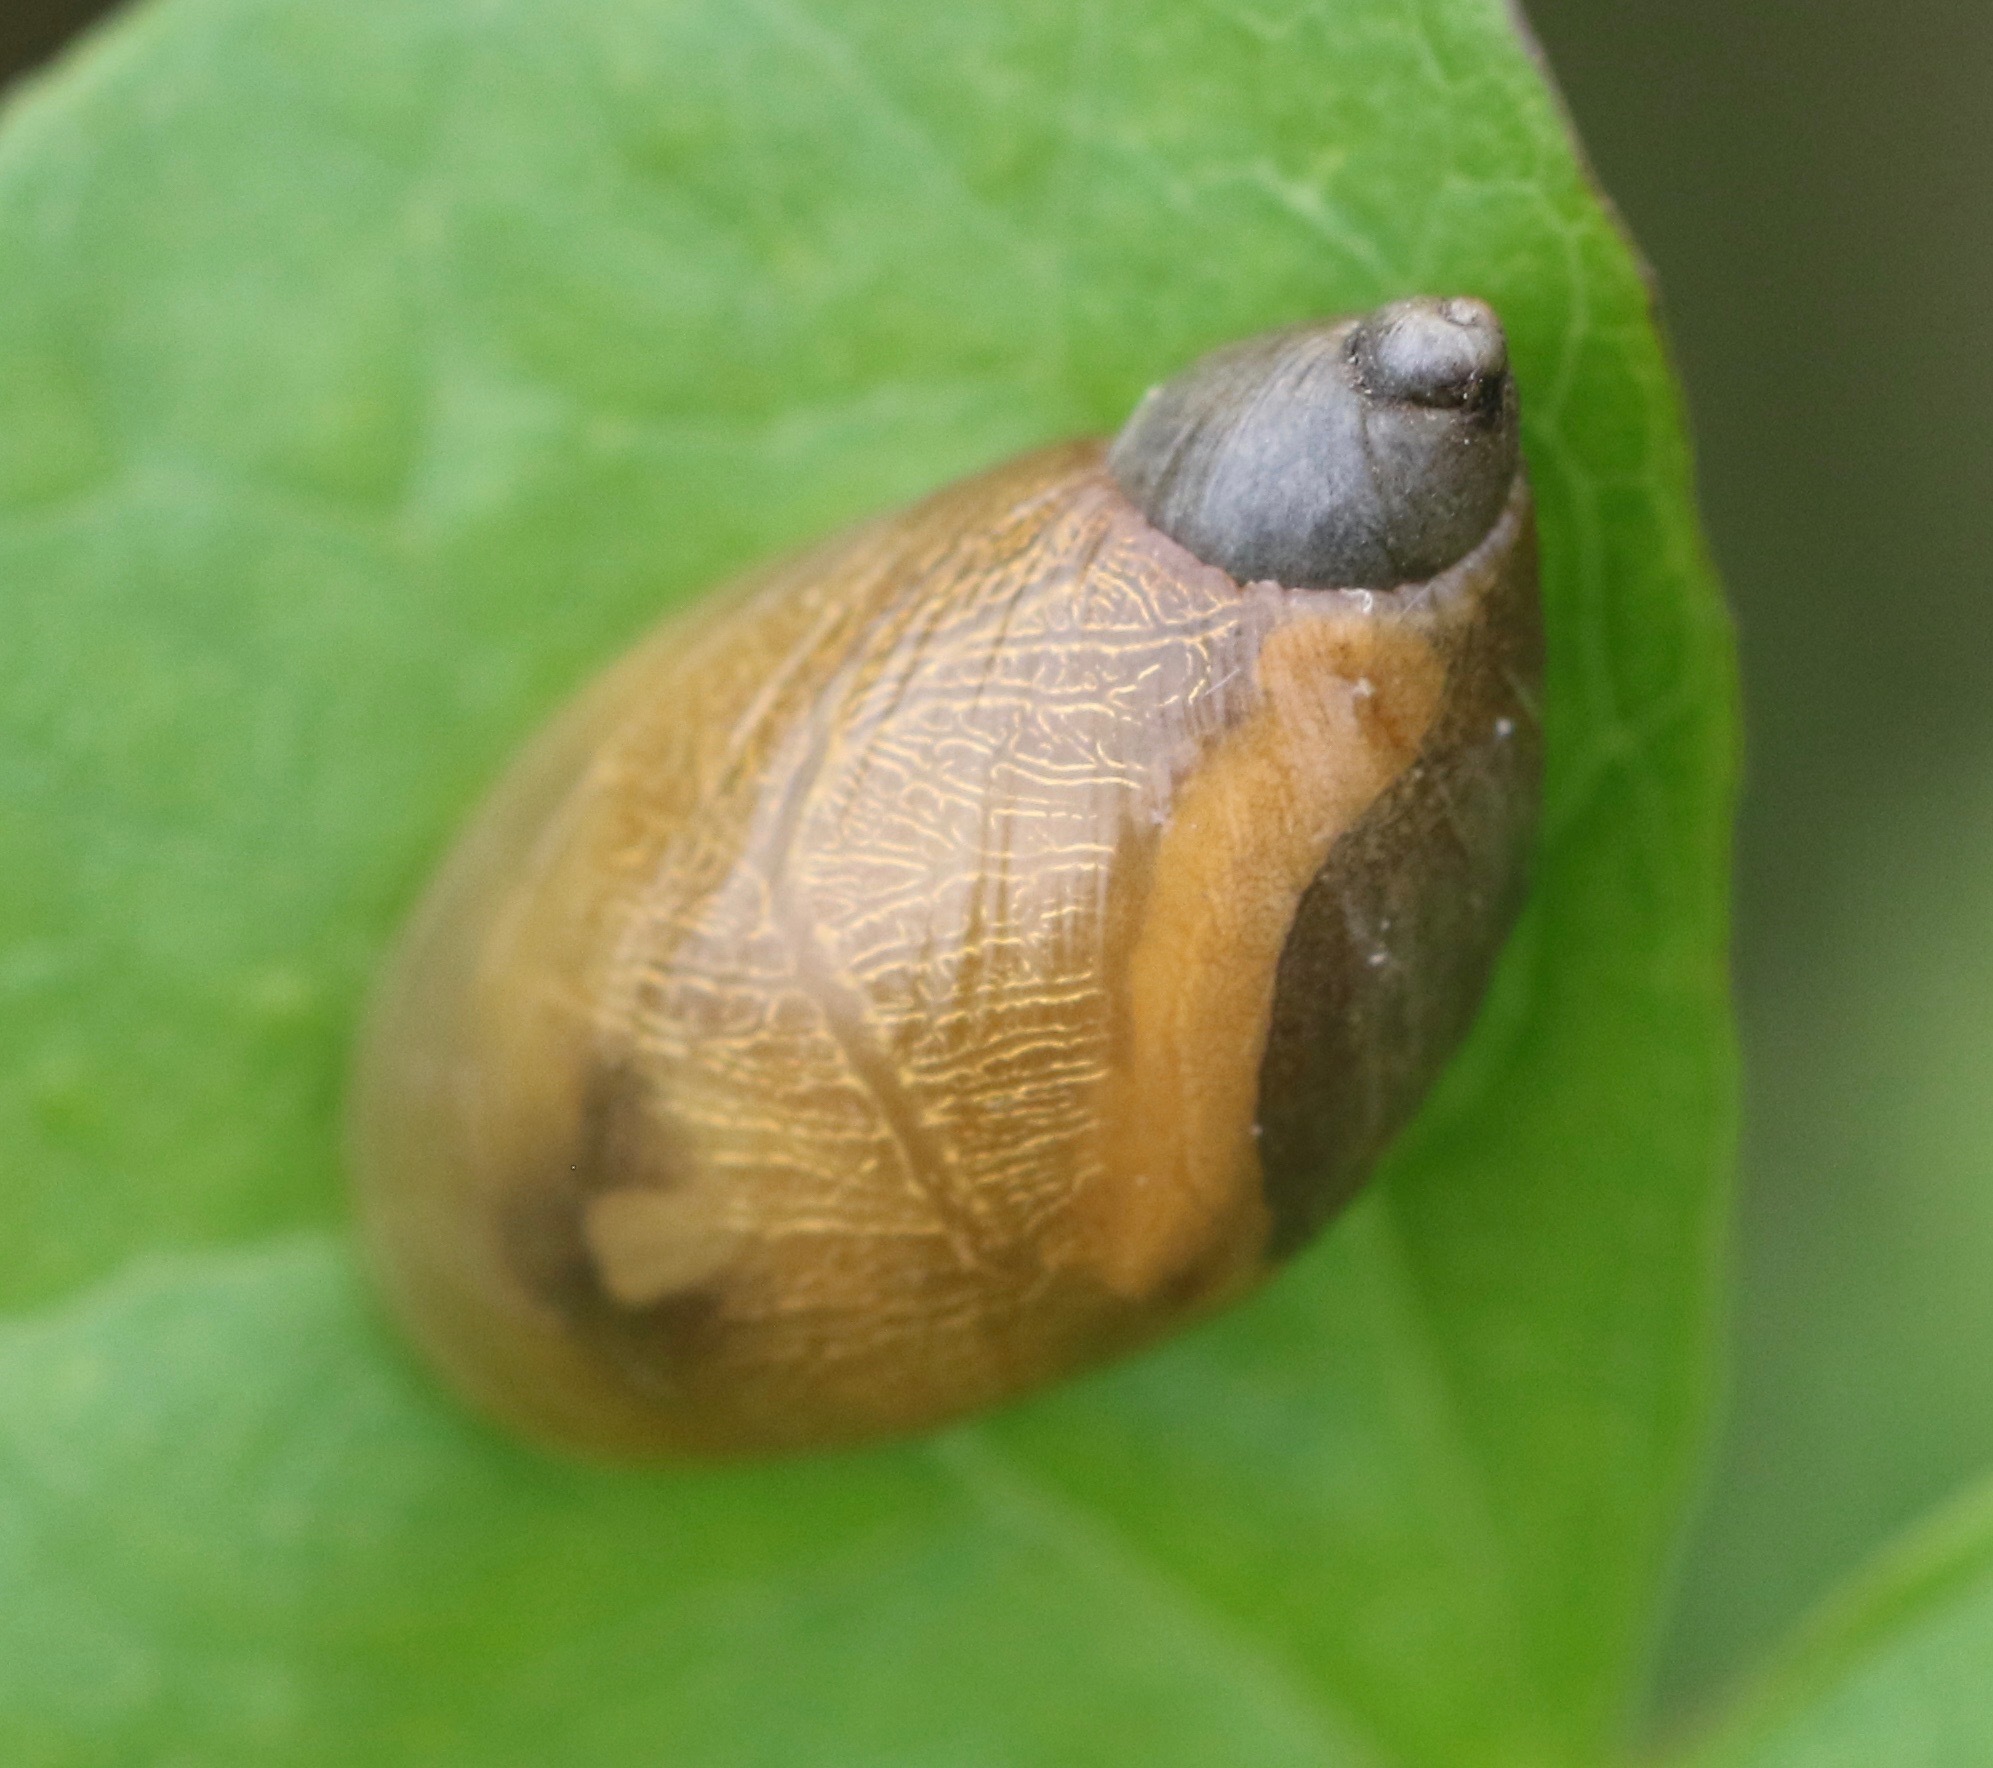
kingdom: Animalia
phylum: Mollusca
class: Gastropoda
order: Stylommatophora
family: Succineidae
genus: Succinea
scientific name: Succinea putris
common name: European ambersnail
